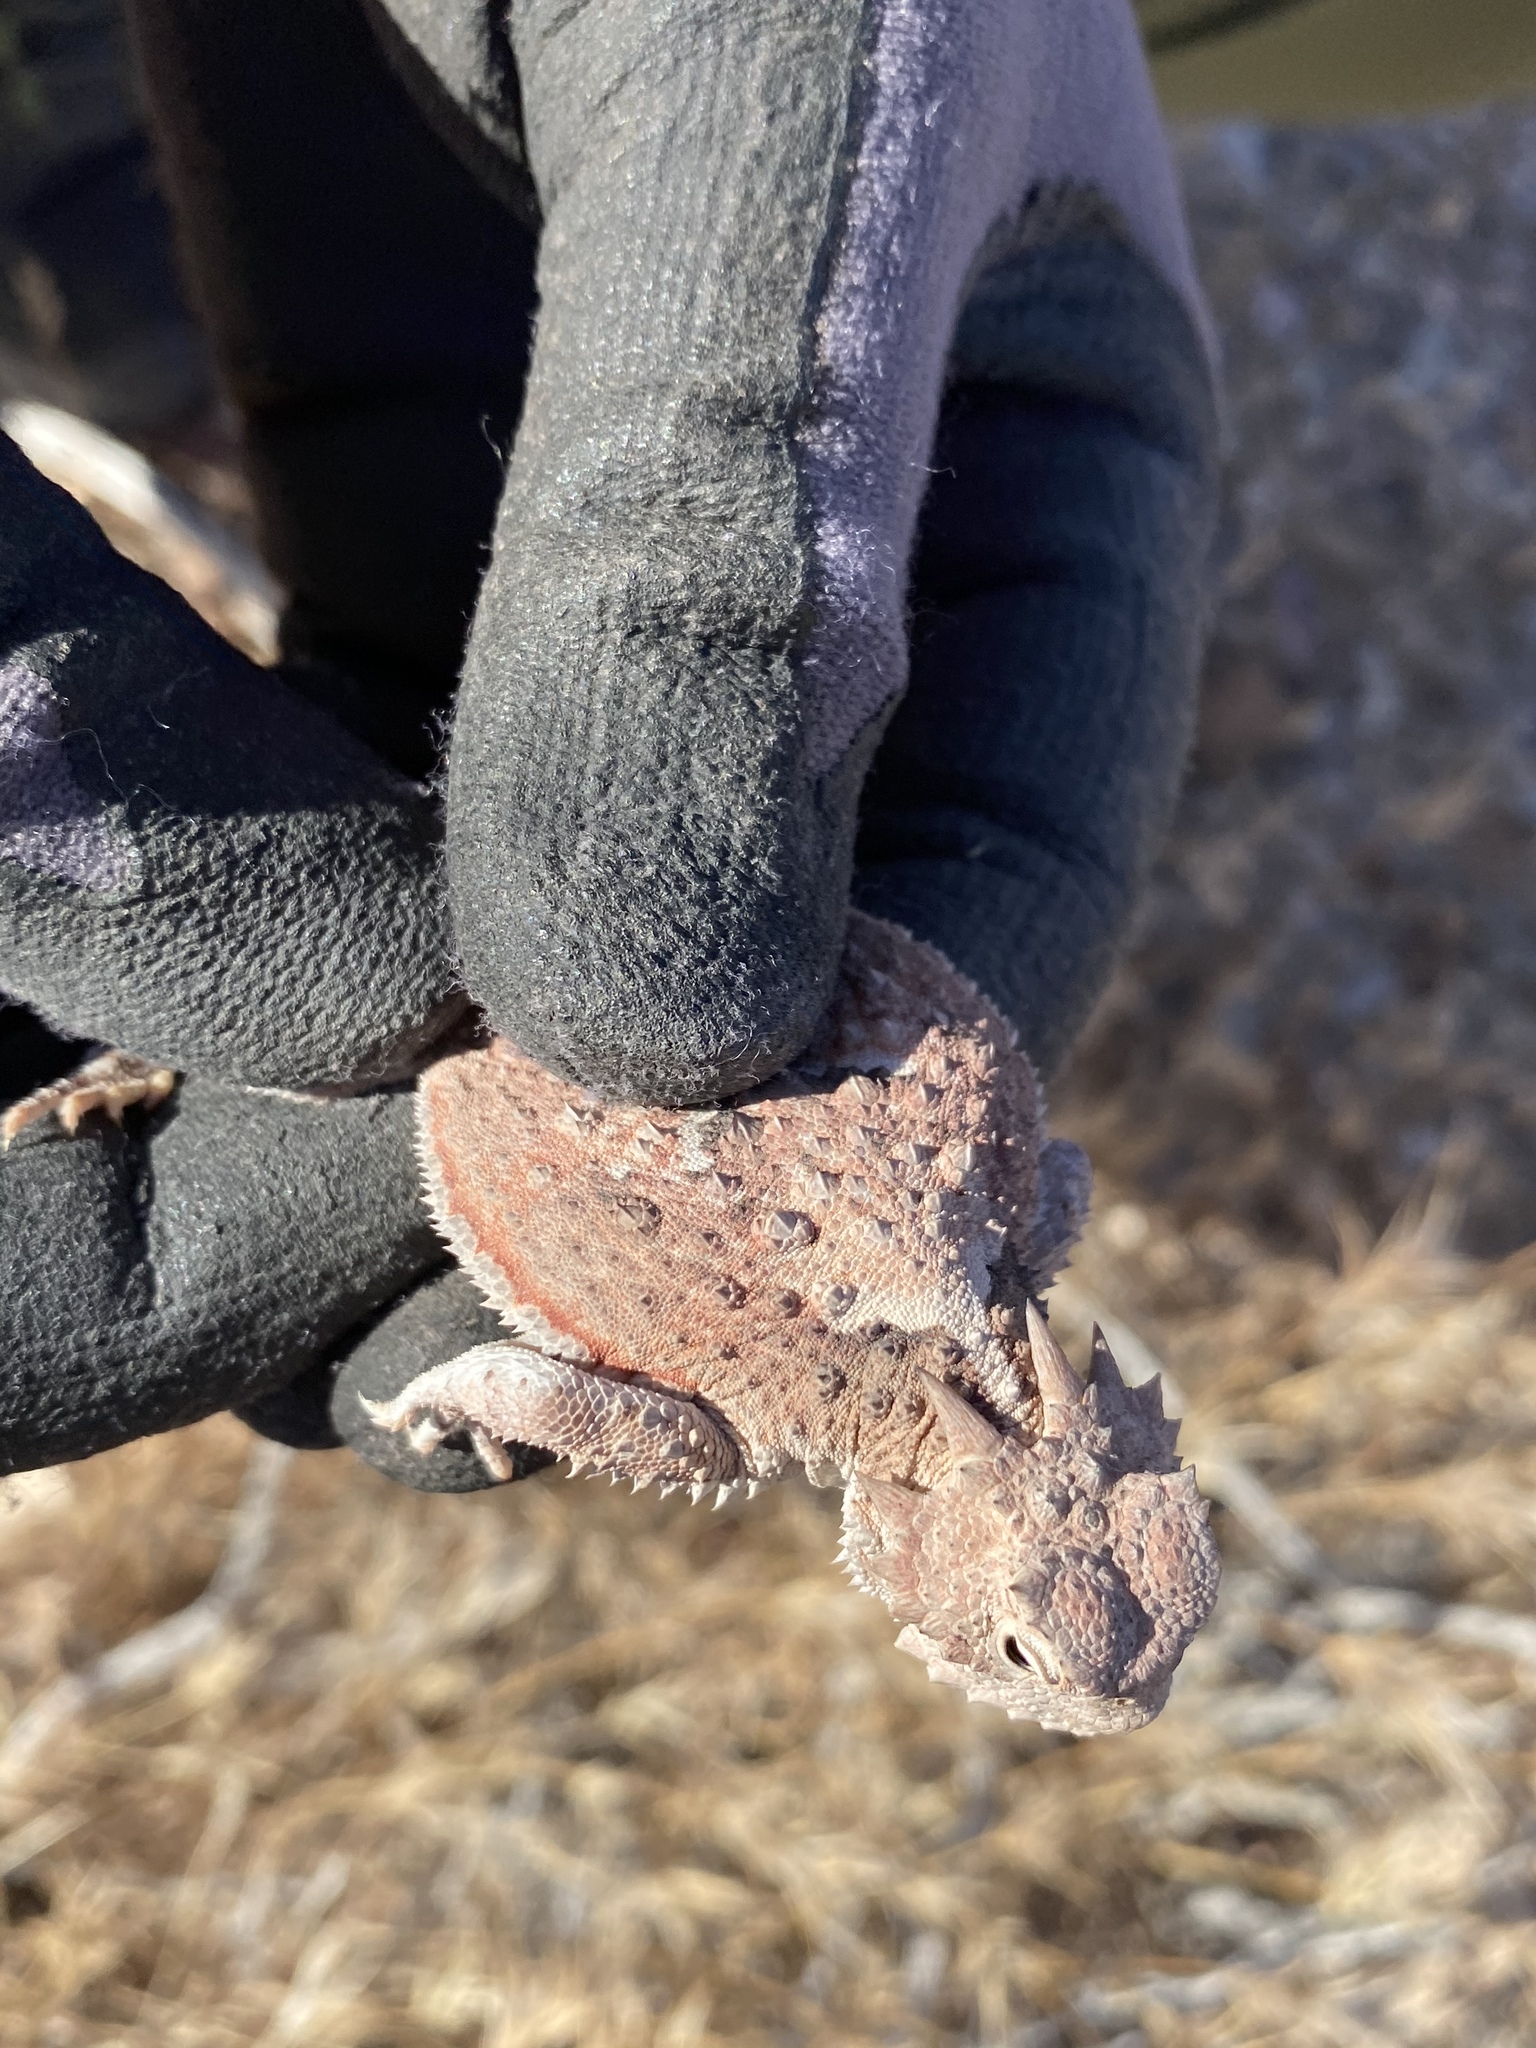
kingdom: Animalia
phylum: Chordata
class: Squamata
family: Phrynosomatidae
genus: Phrynosoma
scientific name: Phrynosoma platyrhinos
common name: Desert horned lizard
